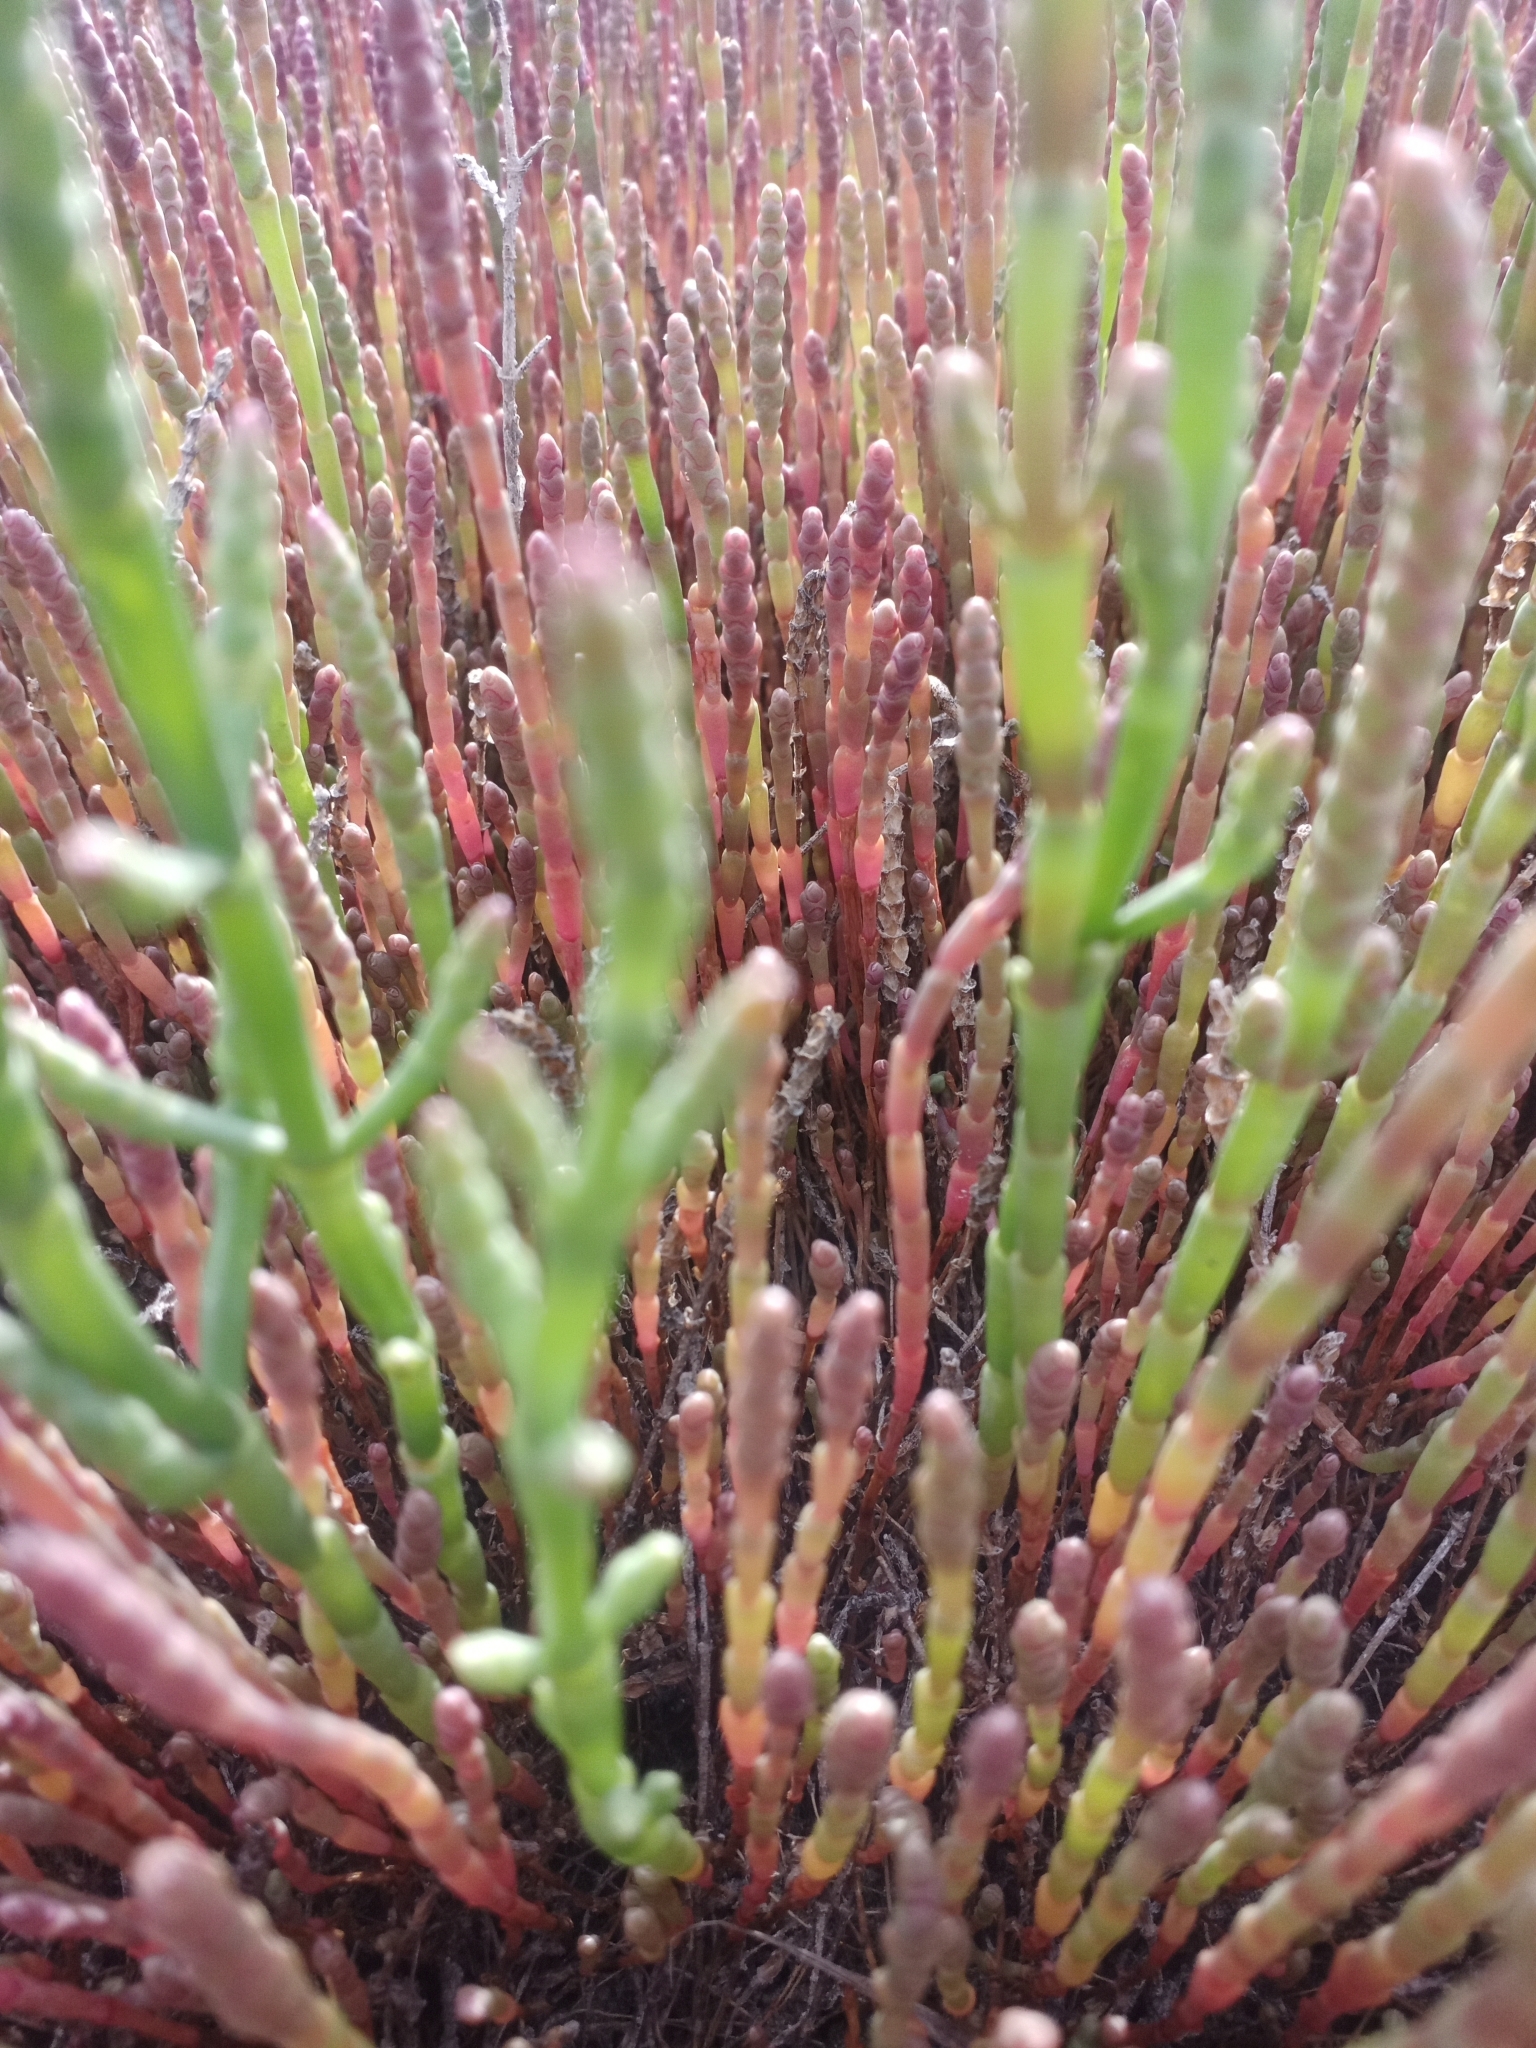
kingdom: Plantae
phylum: Tracheophyta
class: Magnoliopsida
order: Caryophyllales
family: Amaranthaceae
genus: Salicornia
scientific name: Salicornia perennans
